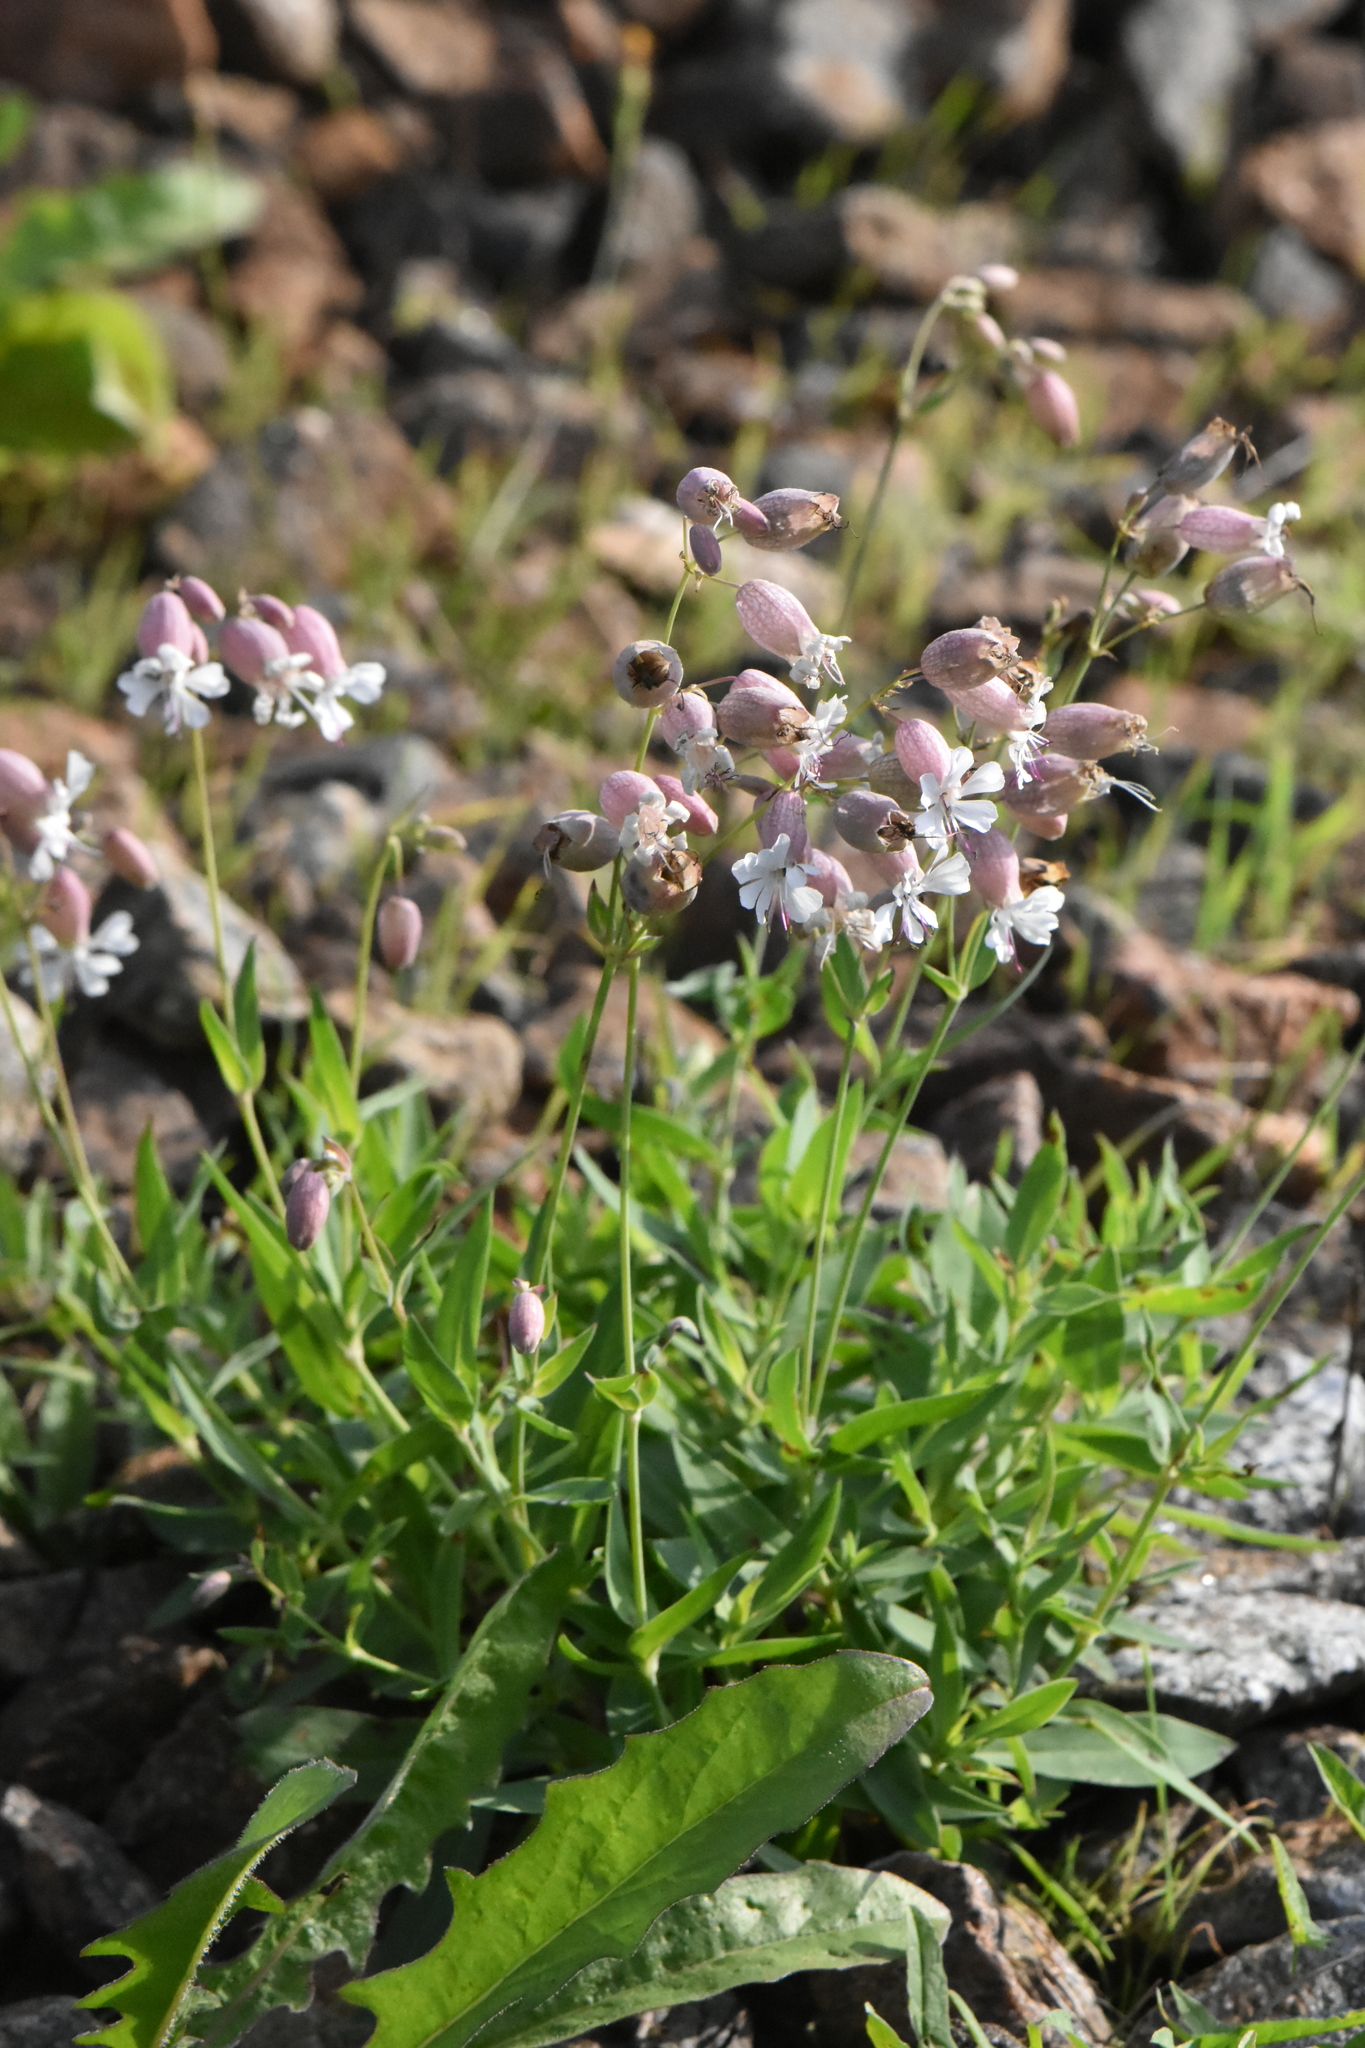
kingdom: Plantae
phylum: Tracheophyta
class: Magnoliopsida
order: Caryophyllales
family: Caryophyllaceae
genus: Silene
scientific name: Silene vulgaris
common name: Bladder campion
